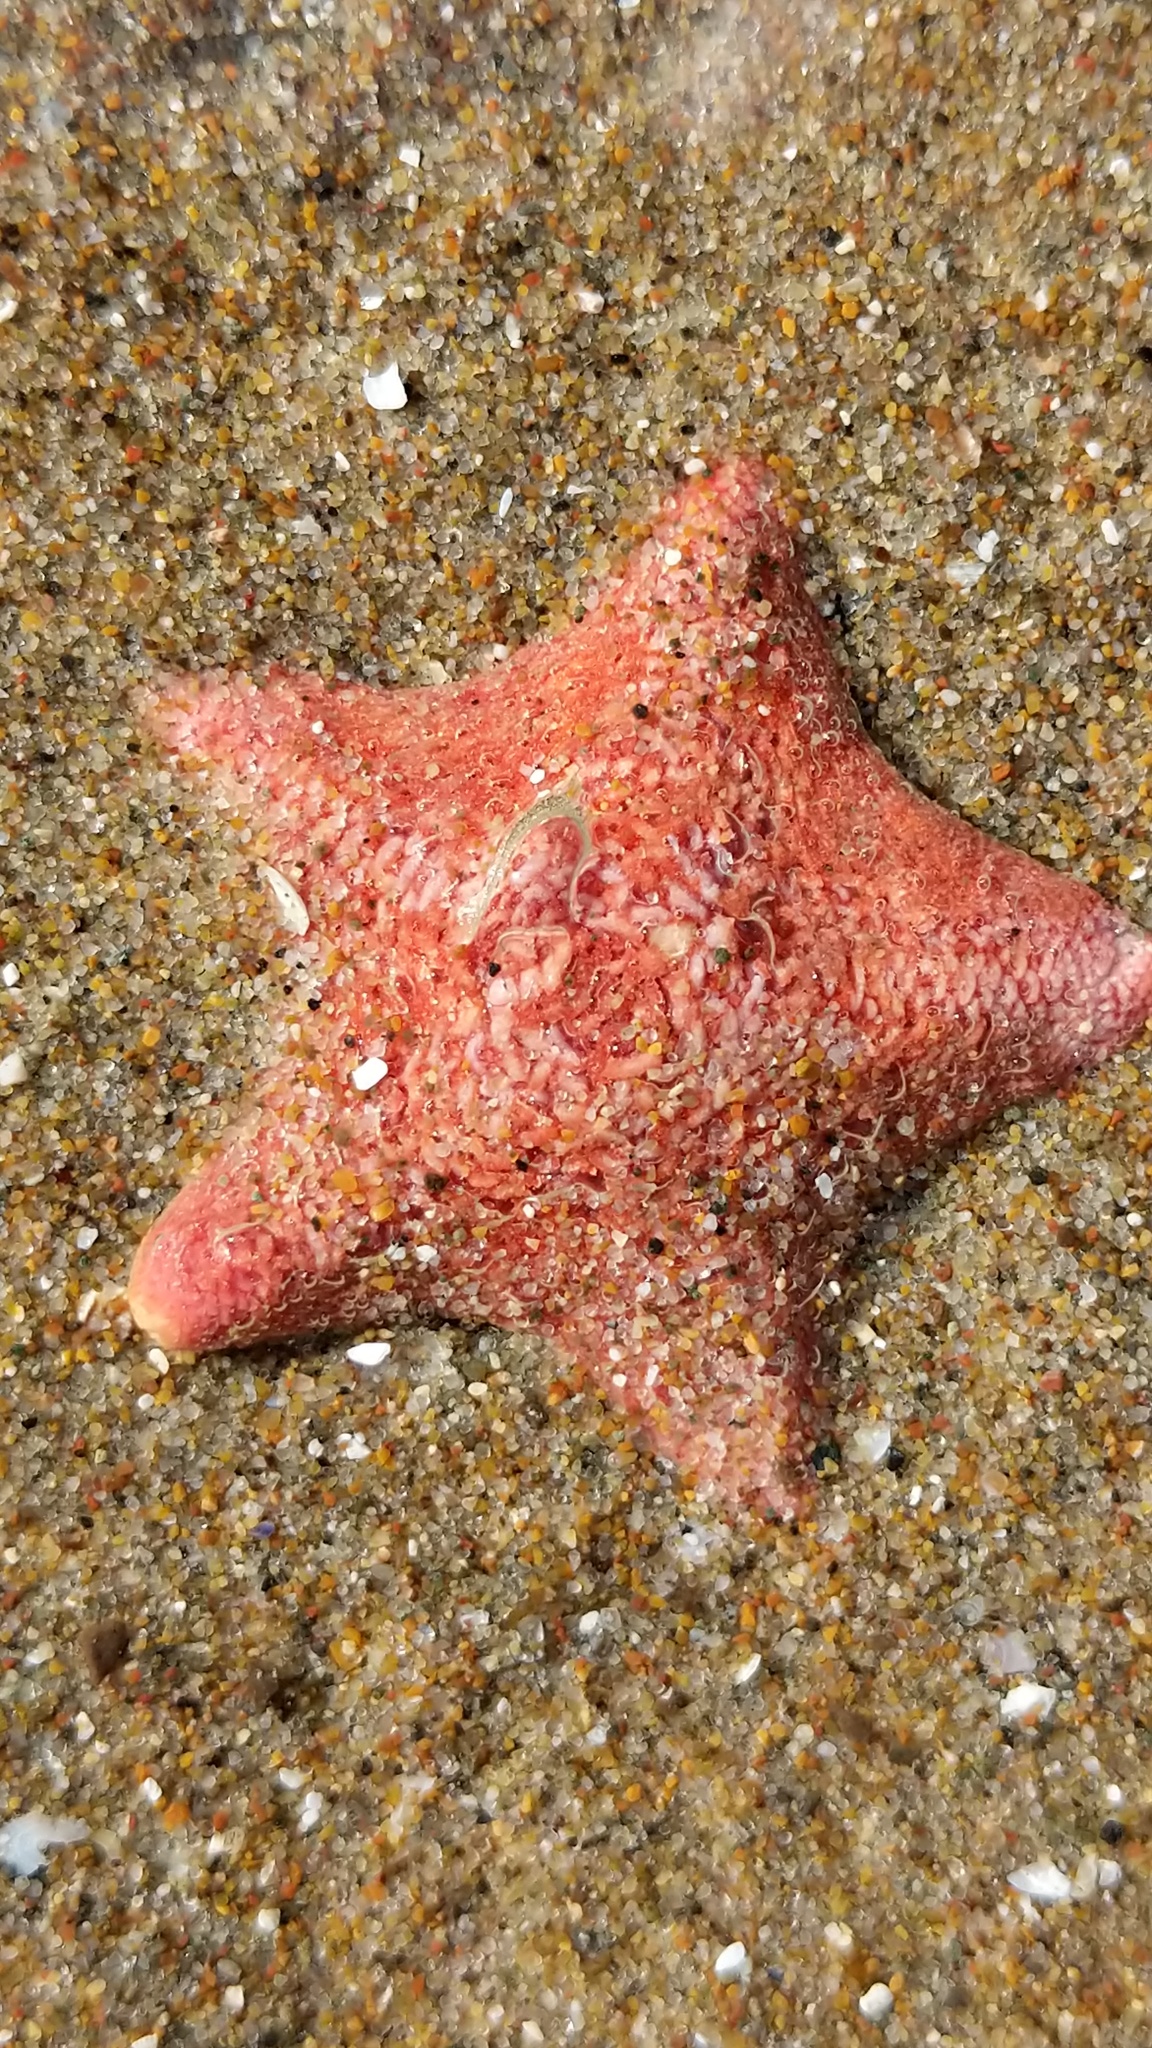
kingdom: Animalia
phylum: Echinodermata
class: Asteroidea
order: Valvatida
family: Asterinidae
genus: Patiria
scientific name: Patiria miniata
